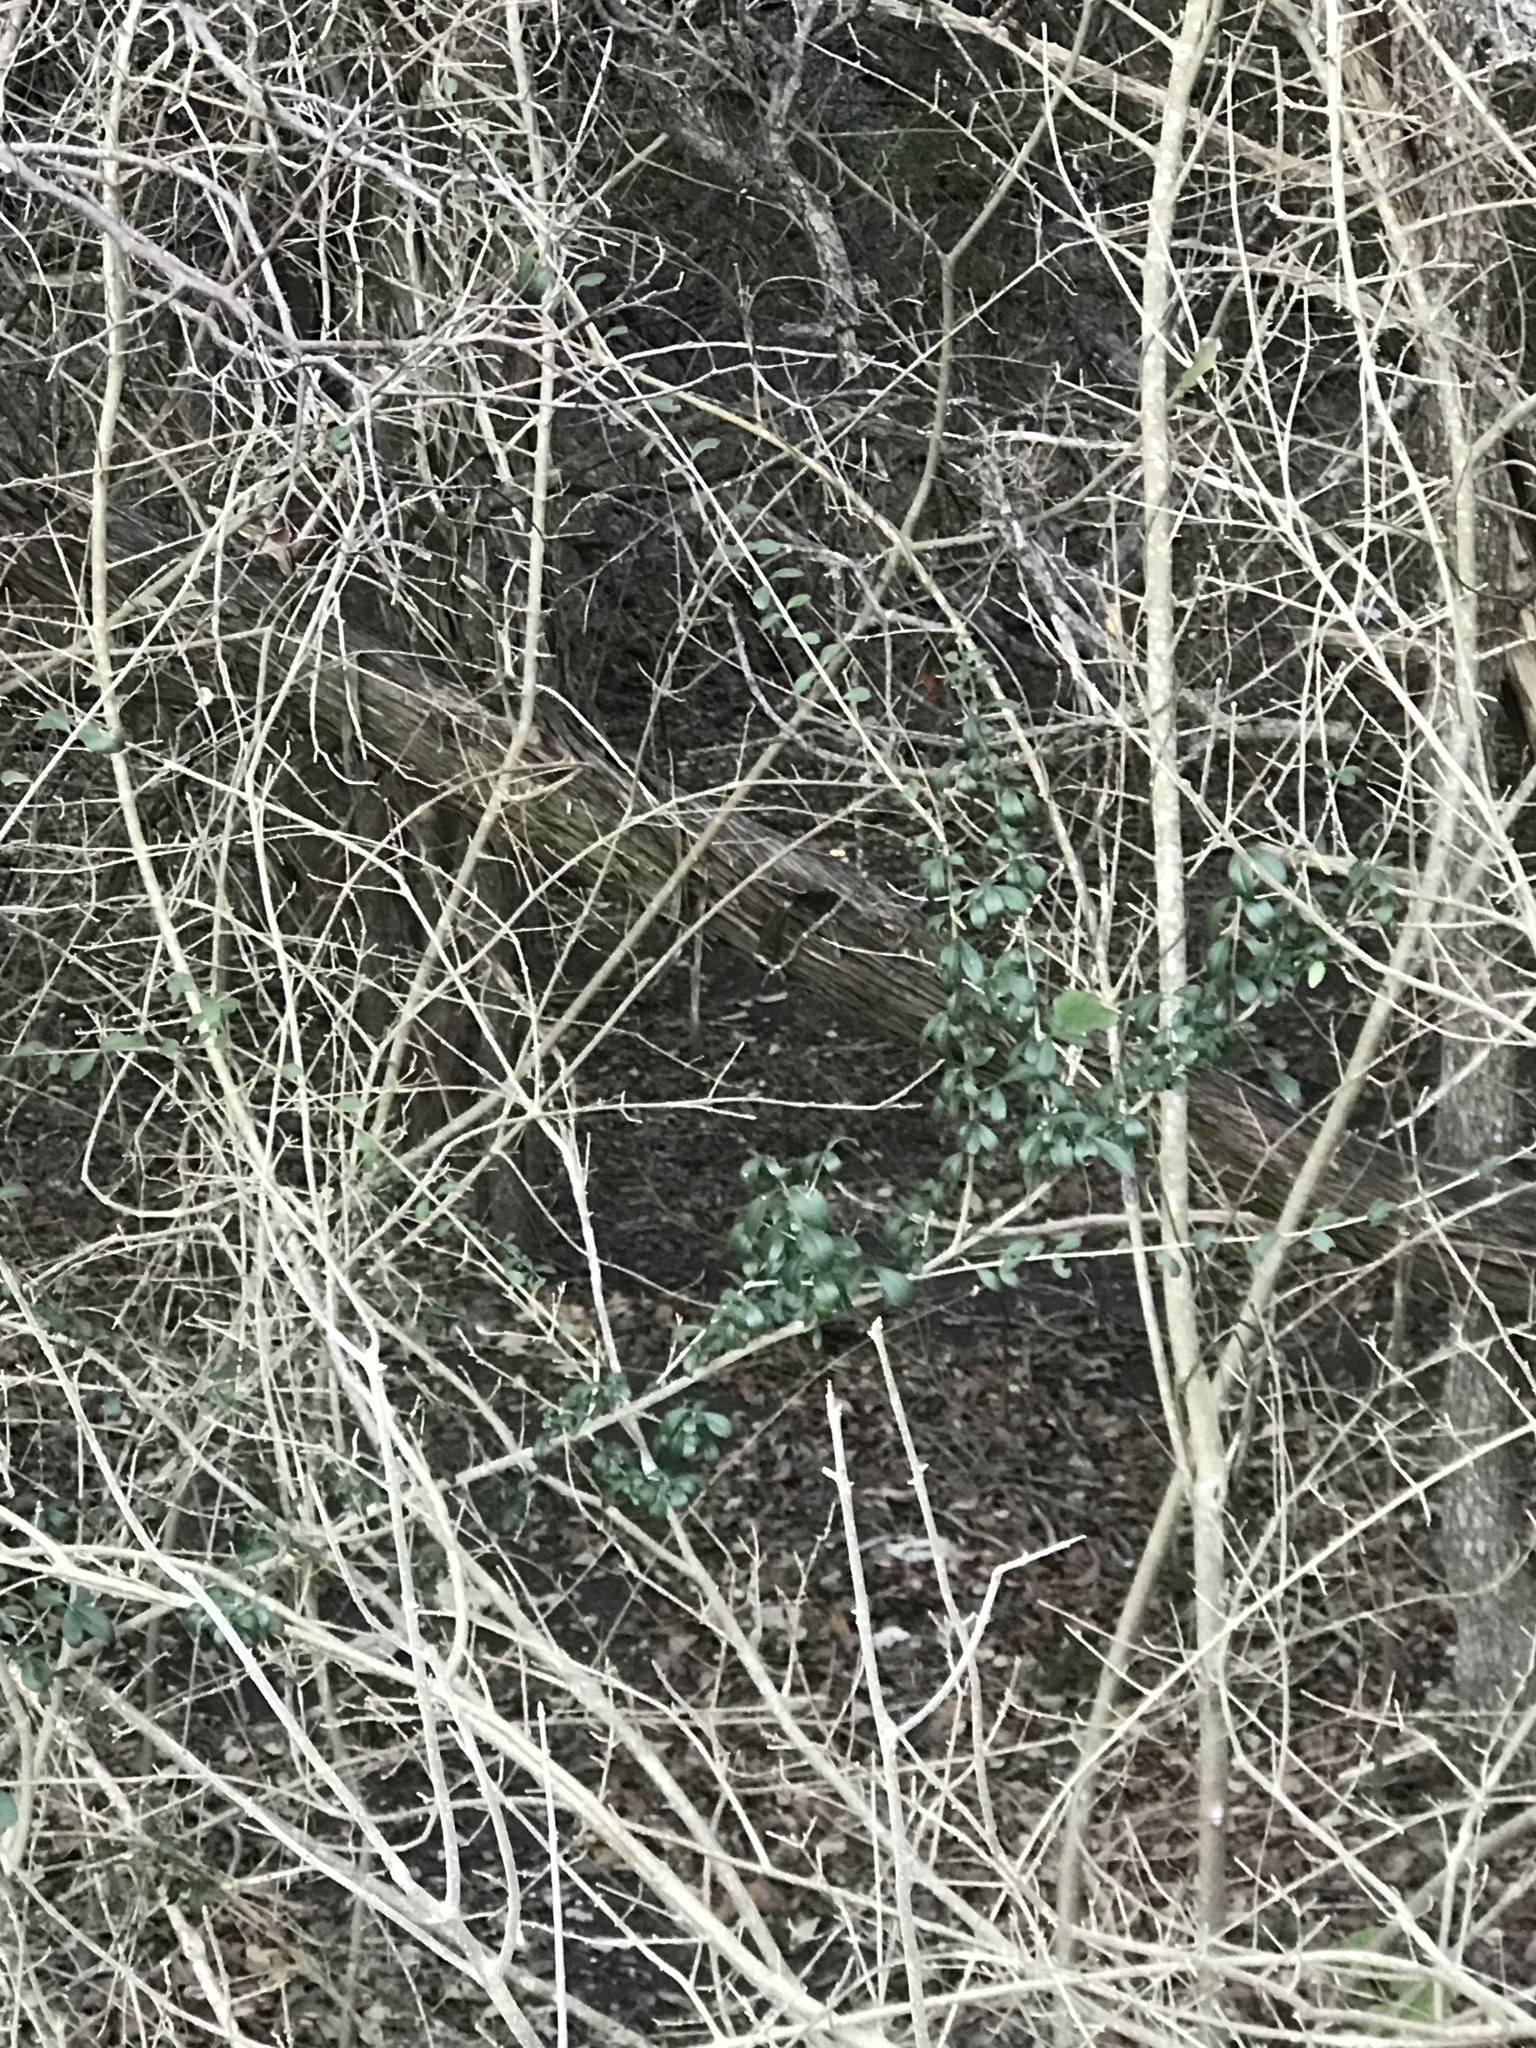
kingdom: Plantae
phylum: Tracheophyta
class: Magnoliopsida
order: Lamiales
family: Oleaceae
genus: Ligustrum
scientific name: Ligustrum quihoui
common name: Waxyleaf privet
